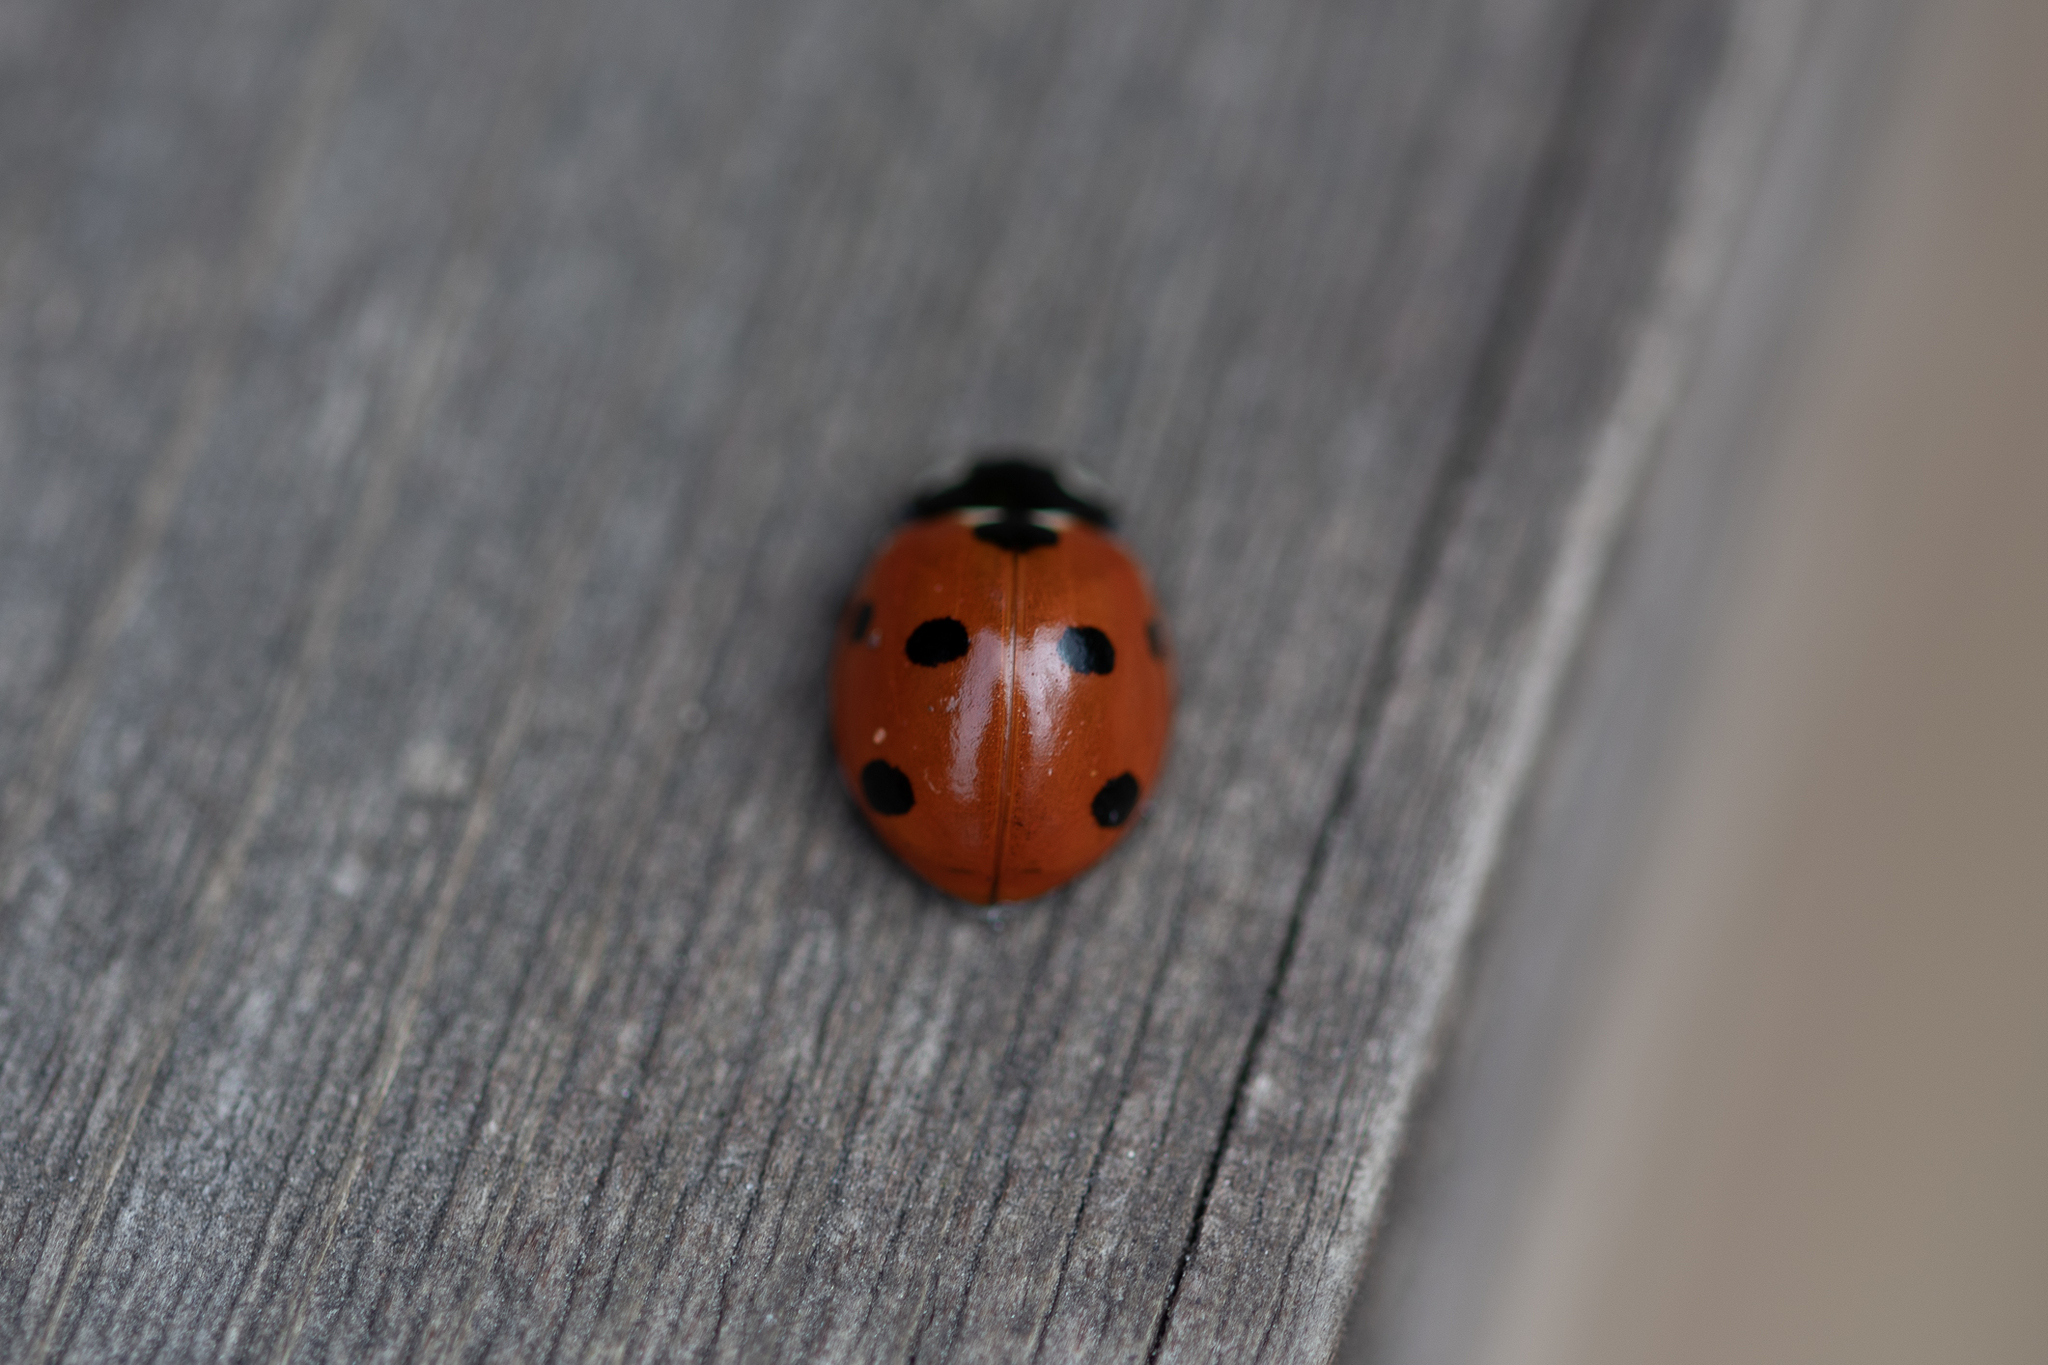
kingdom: Animalia
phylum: Arthropoda
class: Insecta
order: Coleoptera
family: Coccinellidae
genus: Coccinella
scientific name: Coccinella septempunctata
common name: Sevenspotted lady beetle
